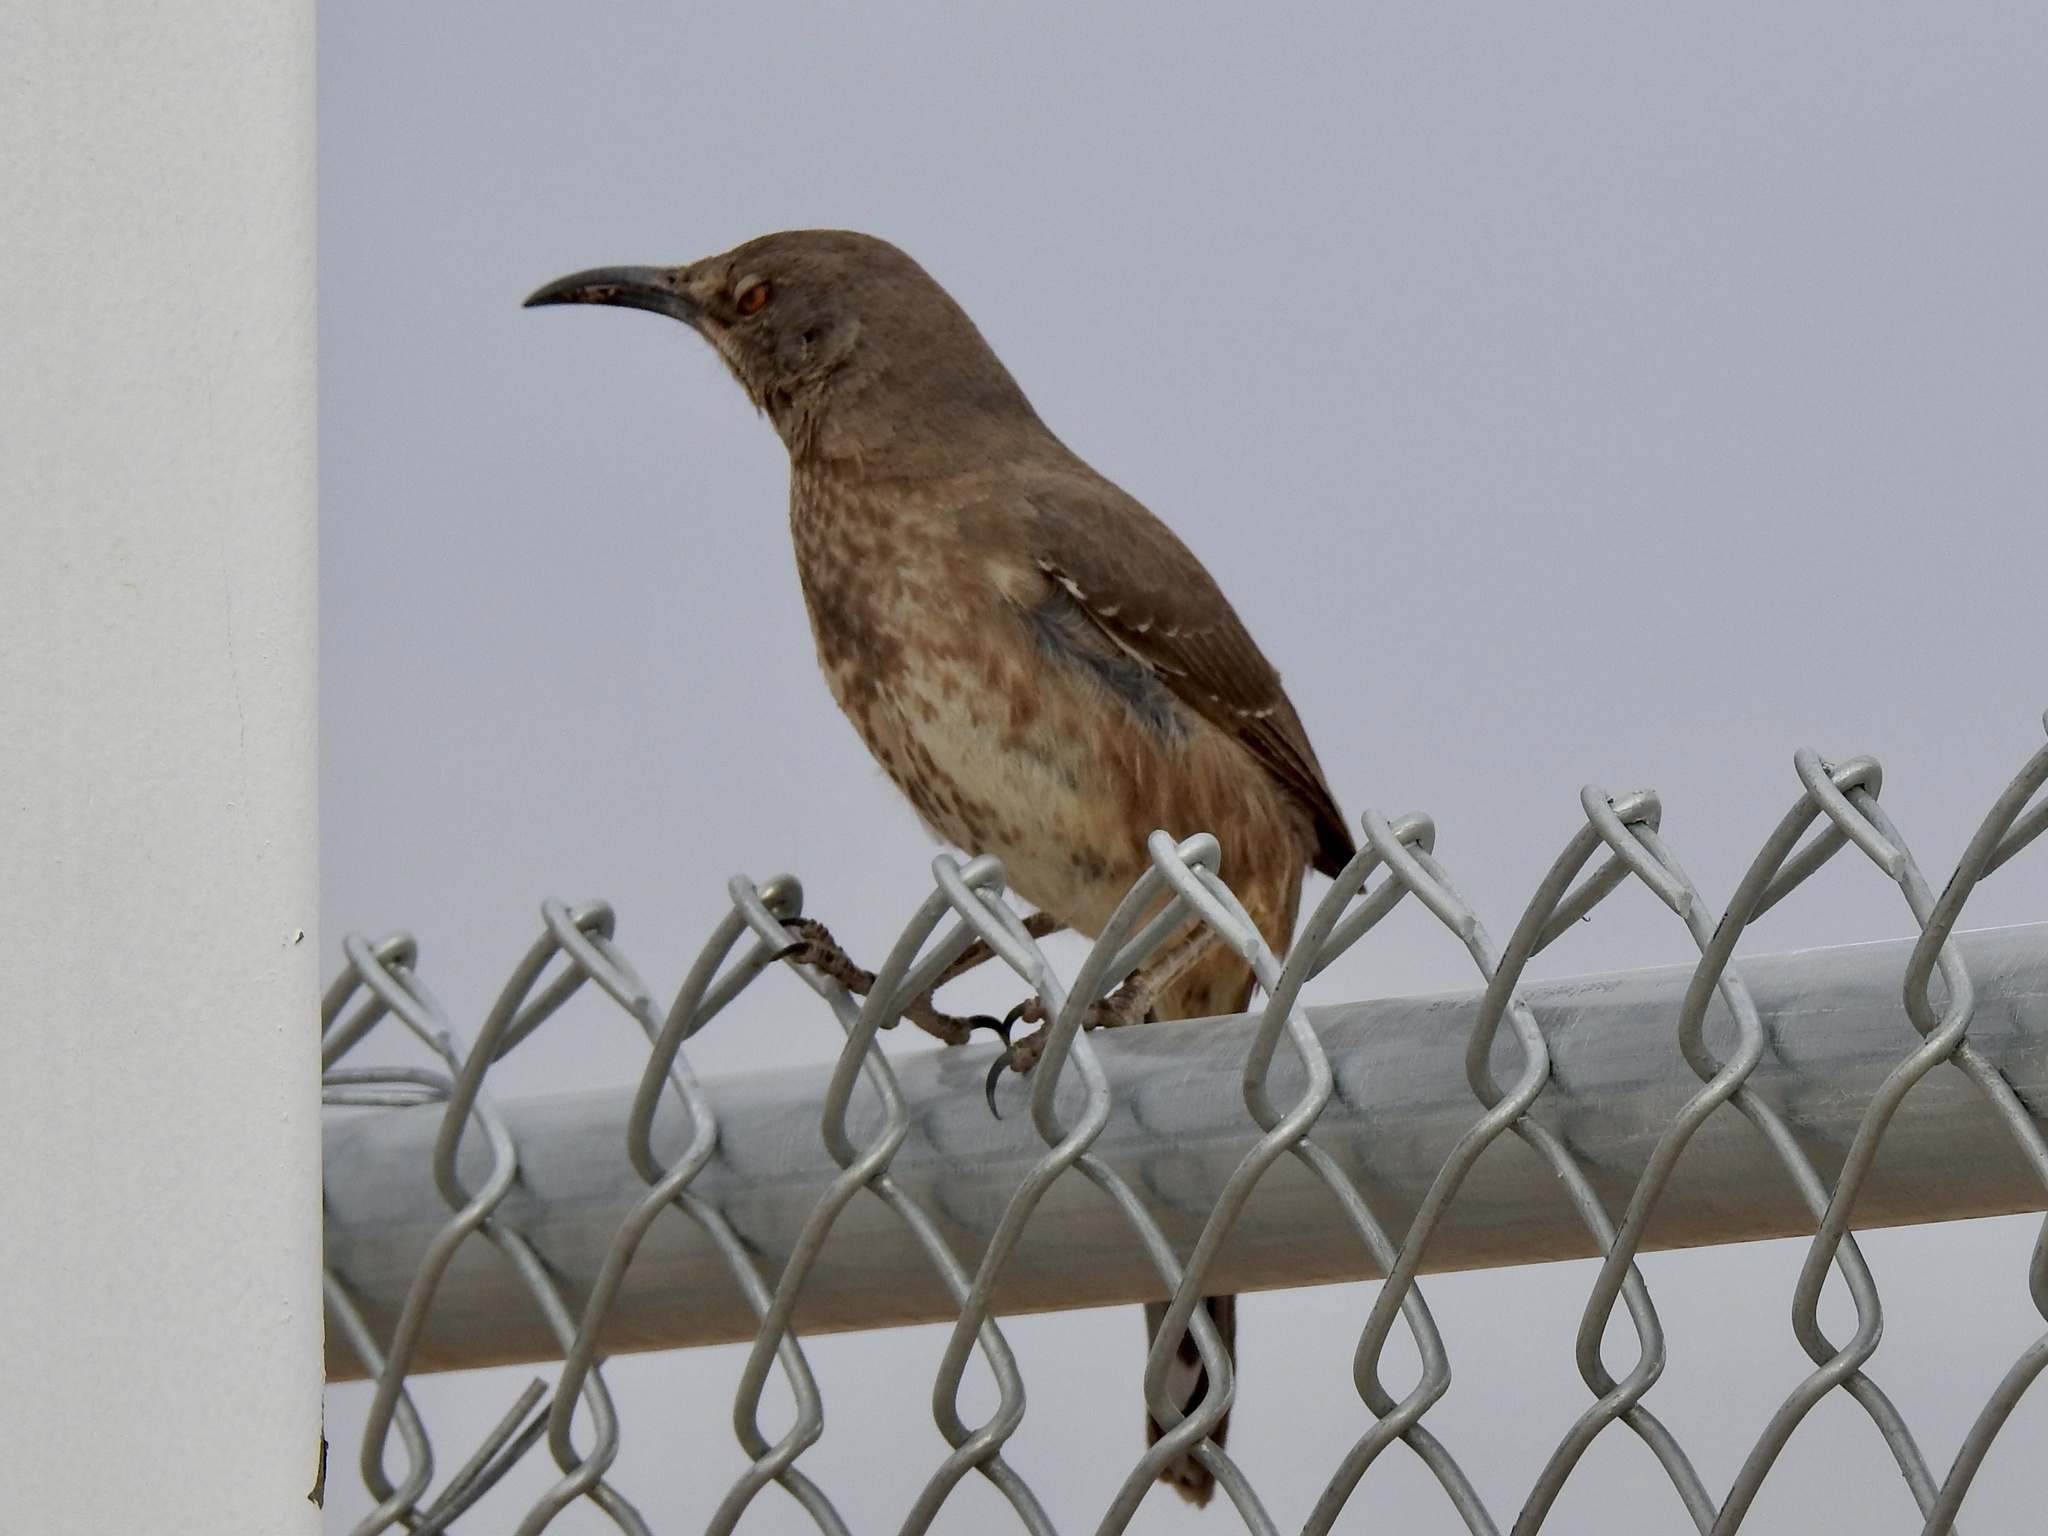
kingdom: Animalia
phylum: Chordata
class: Aves
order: Passeriformes
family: Mimidae
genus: Toxostoma
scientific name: Toxostoma curvirostre
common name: Curve-billed thrasher
